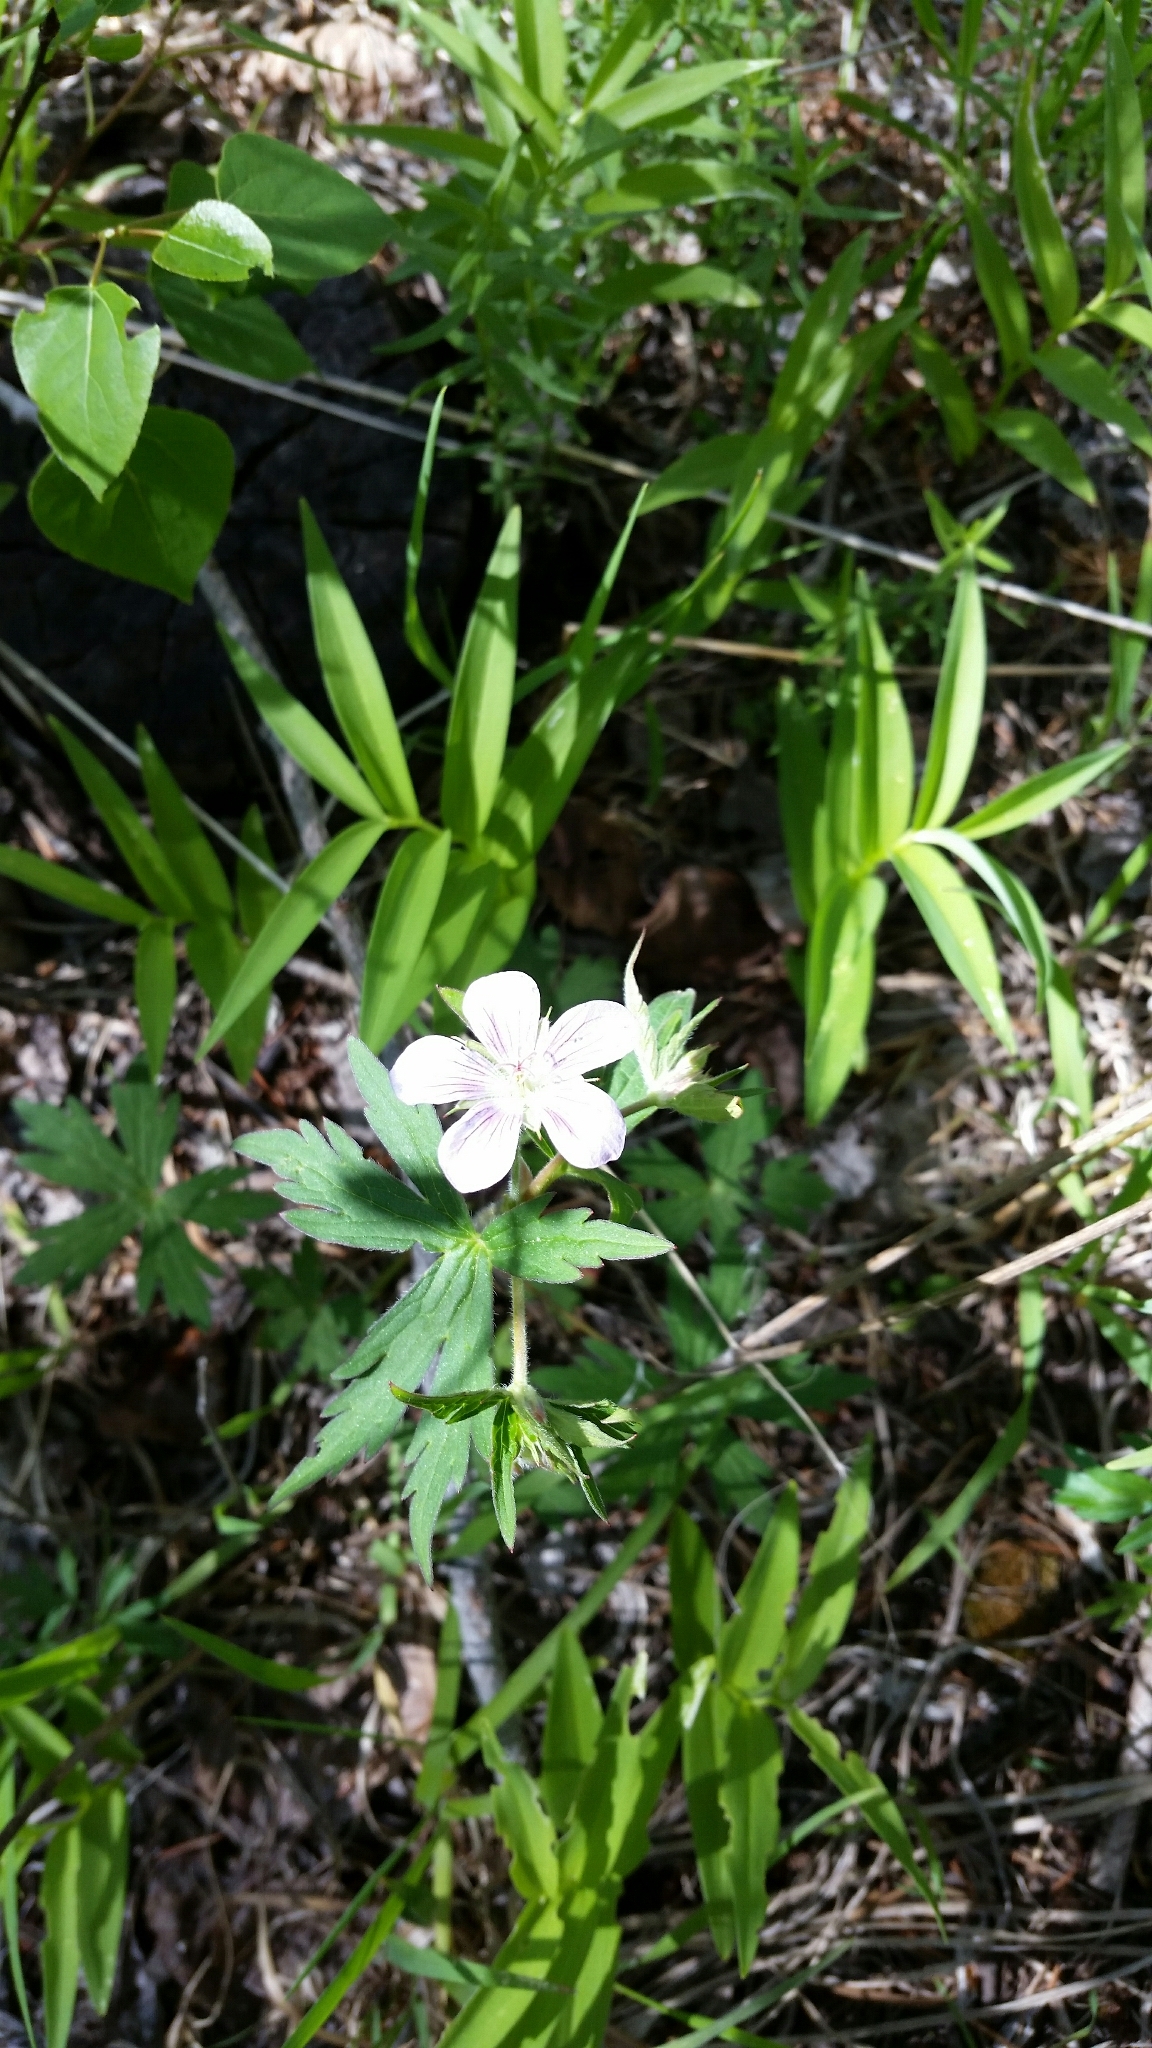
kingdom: Plantae
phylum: Tracheophyta
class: Magnoliopsida
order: Geraniales
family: Geraniaceae
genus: Geranium
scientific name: Geranium richardsonii
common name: Richardson's crane's-bill
